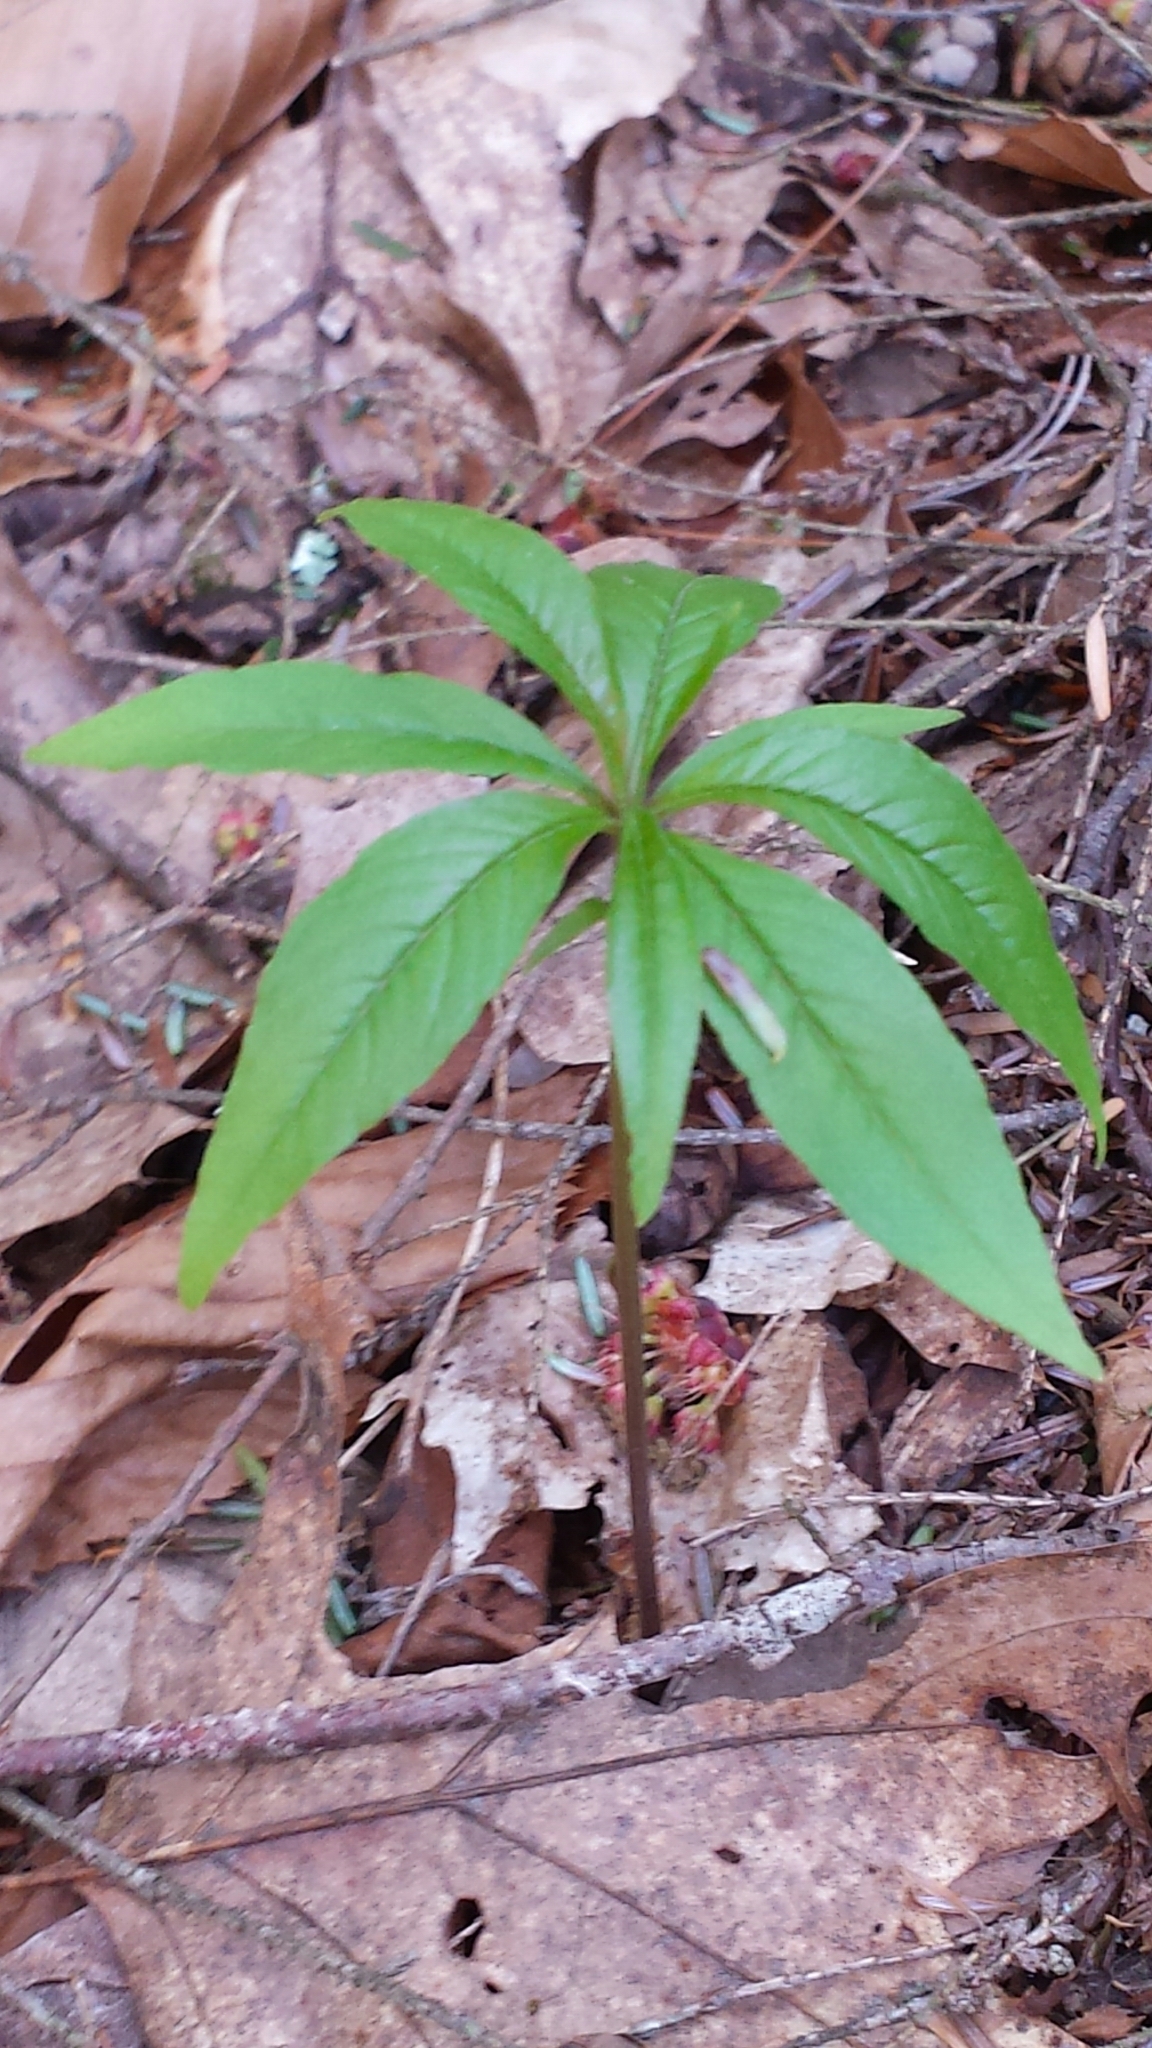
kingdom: Plantae
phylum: Tracheophyta
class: Magnoliopsida
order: Ericales
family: Primulaceae
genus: Lysimachia
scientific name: Lysimachia borealis
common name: American starflower
